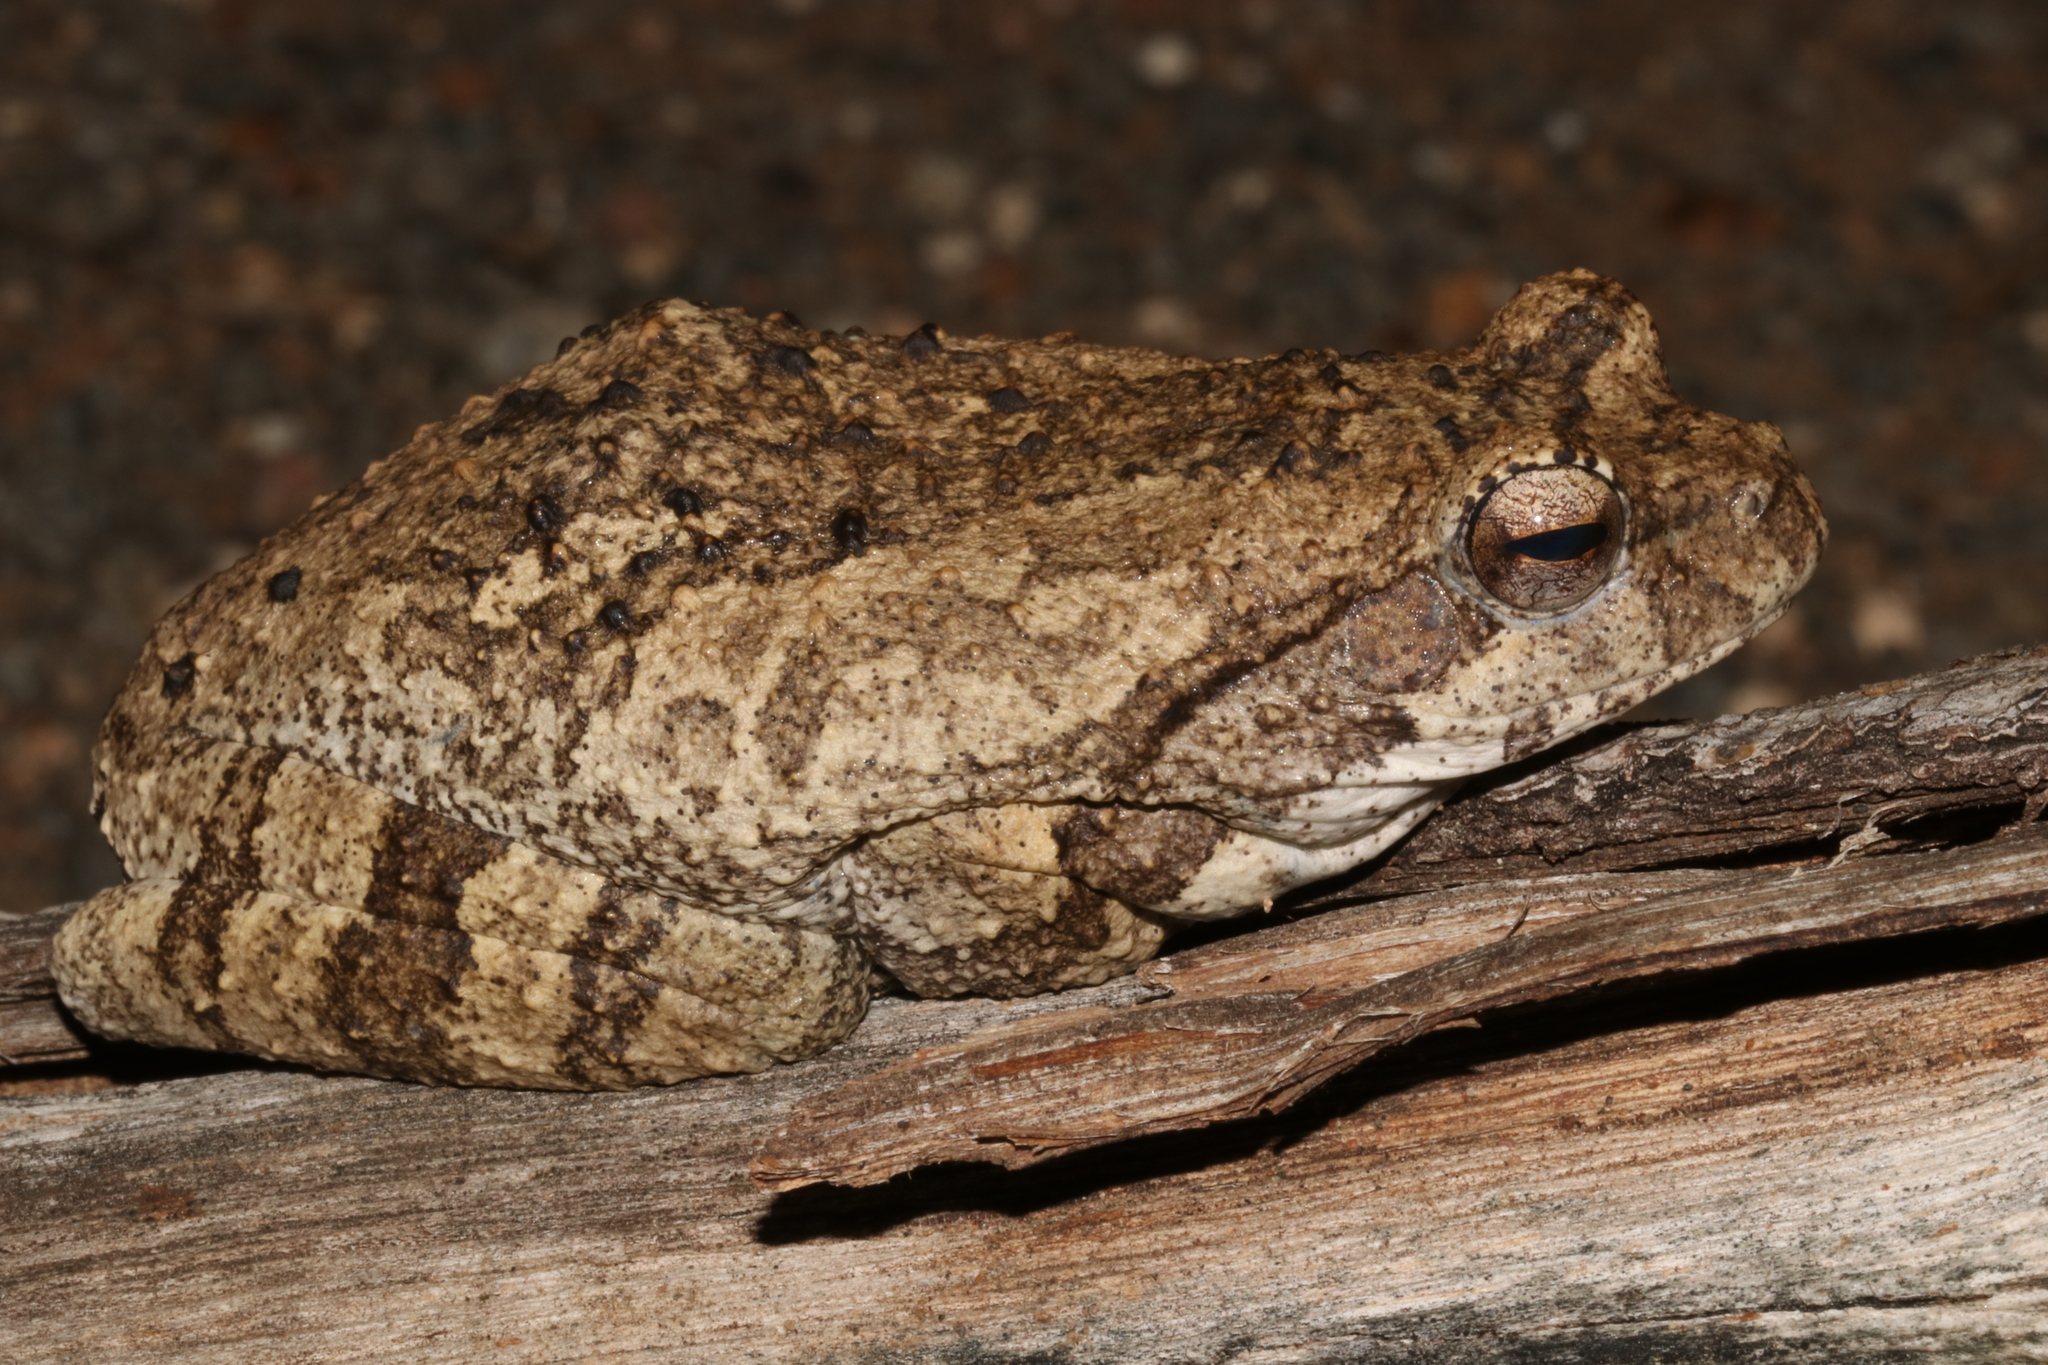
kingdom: Animalia
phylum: Chordata
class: Amphibia
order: Anura
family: Rhacophoridae
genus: Chiromantis
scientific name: Chiromantis xerampelina
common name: African gray treefrog
